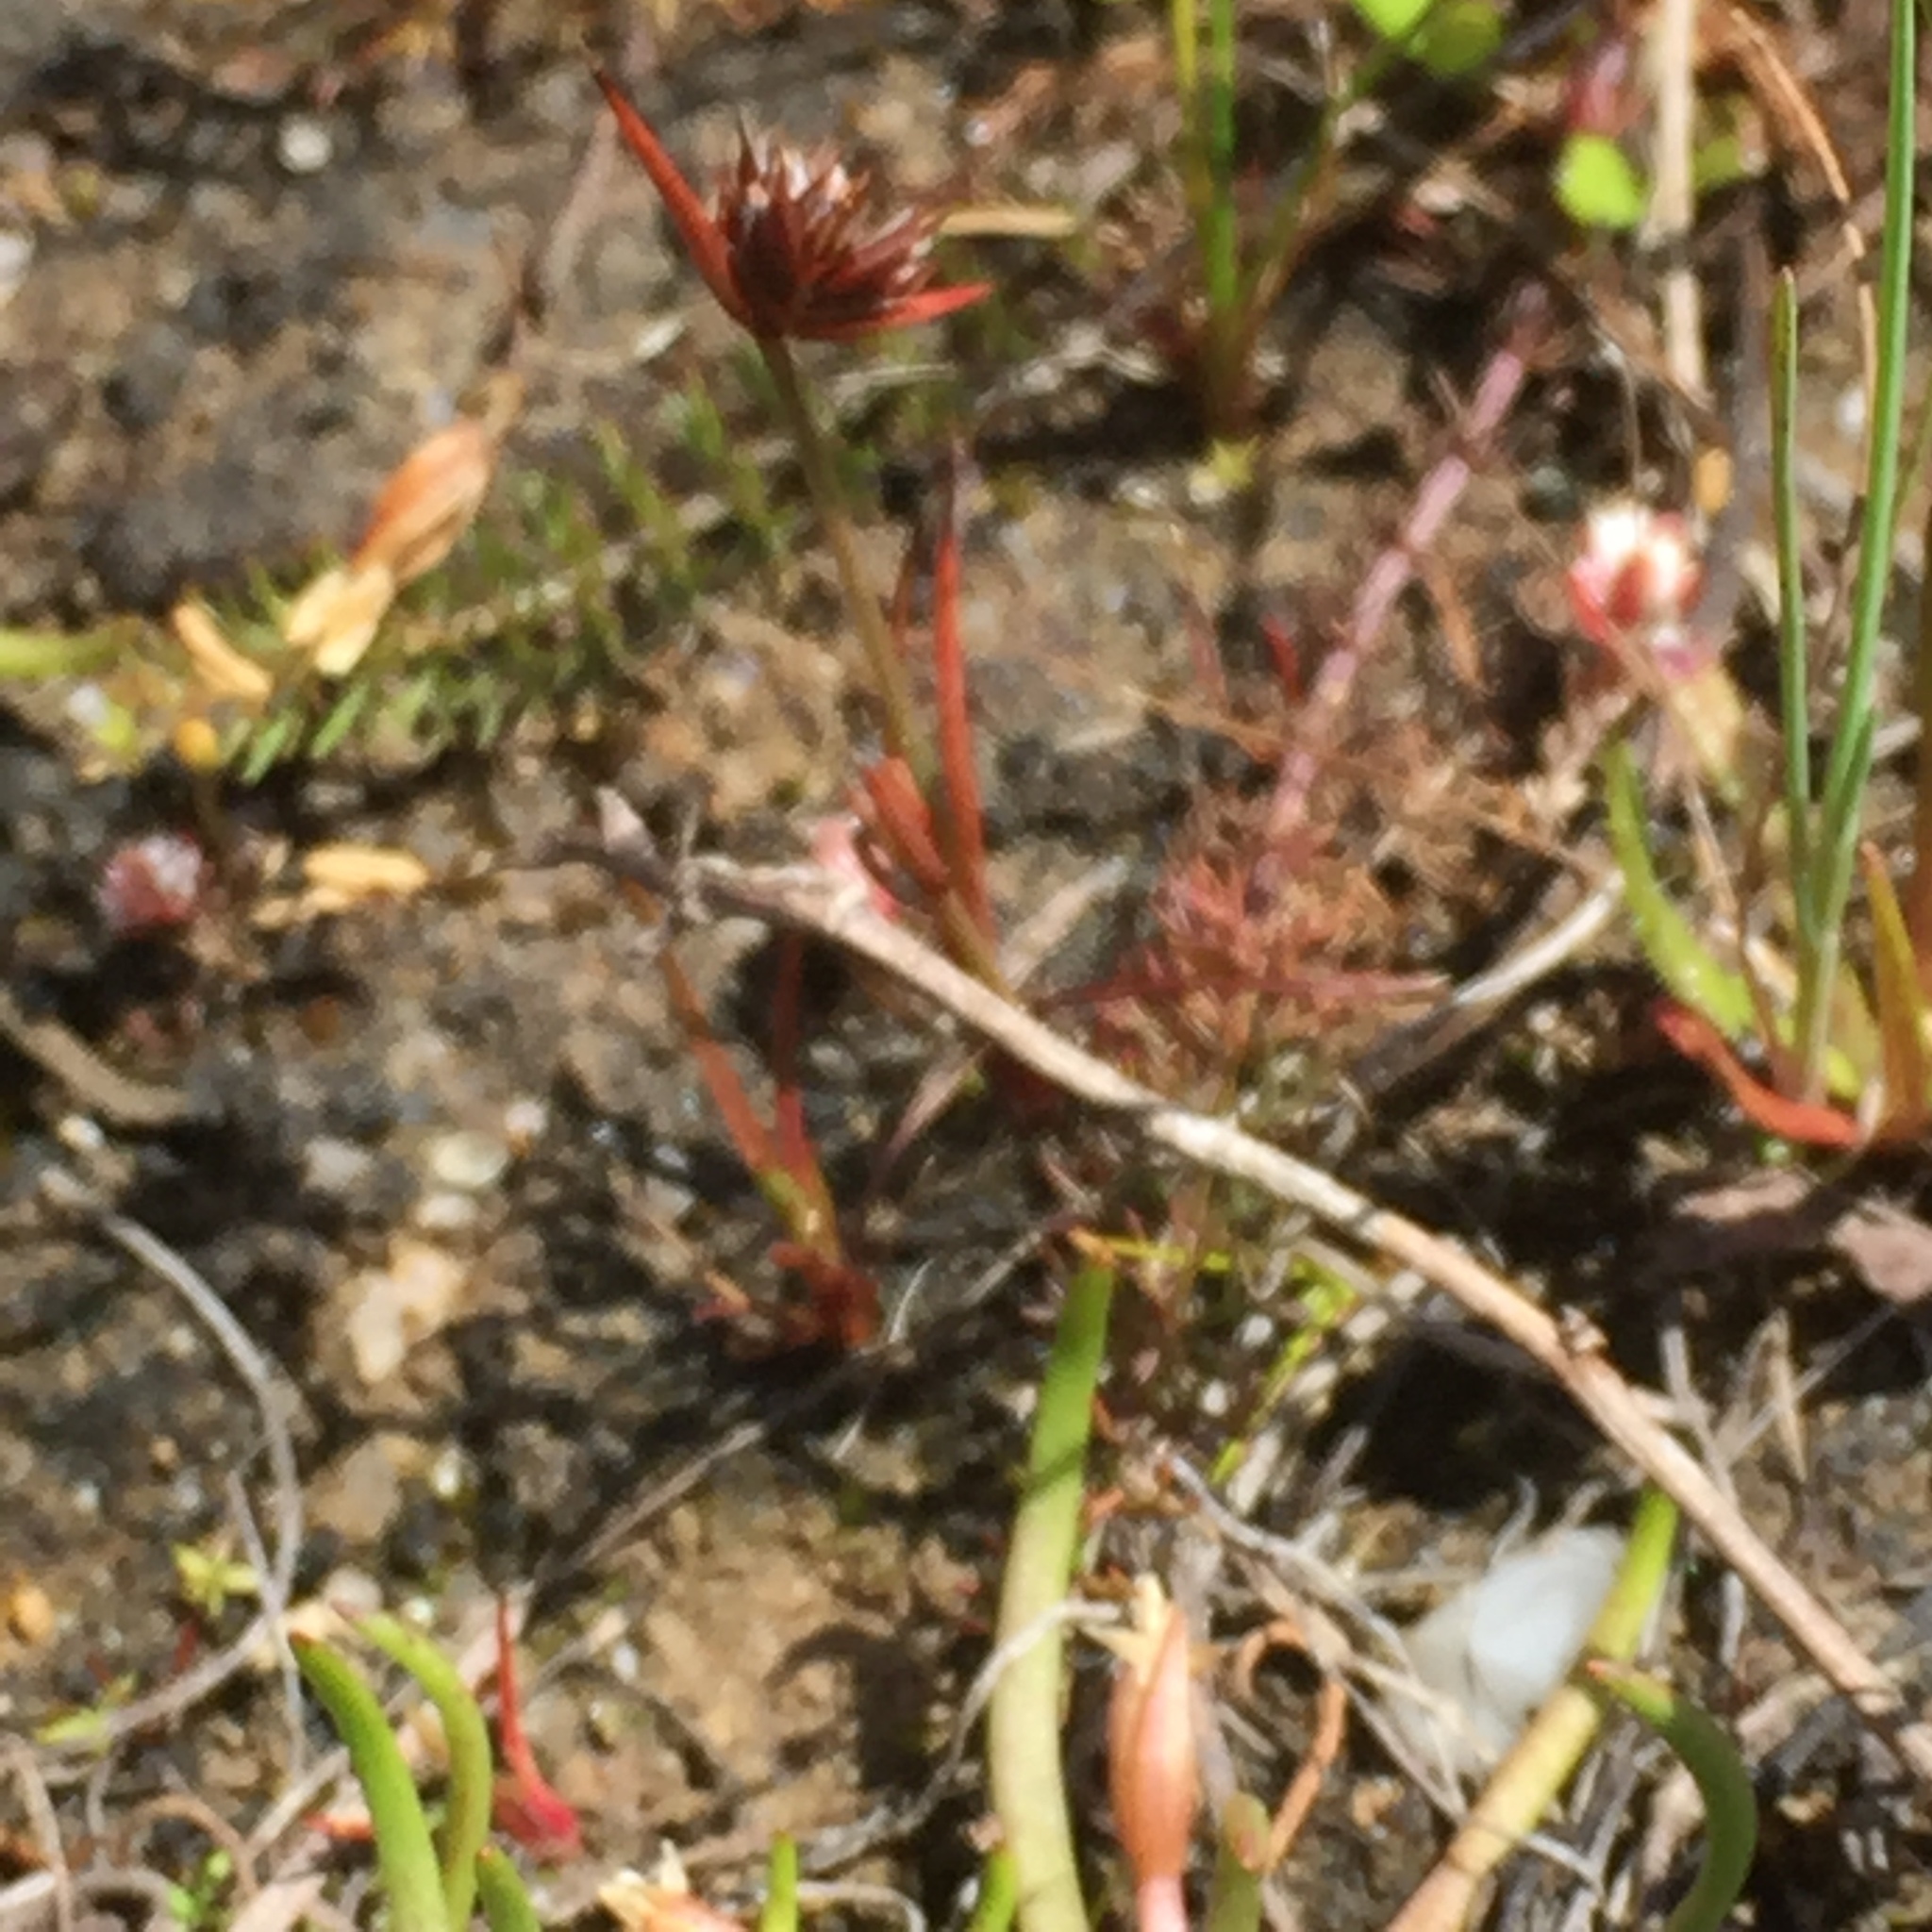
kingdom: Plantae
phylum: Tracheophyta
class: Liliopsida
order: Poales
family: Juncaceae
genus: Juncus
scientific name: Juncus capitatus
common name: Dwarf rush
